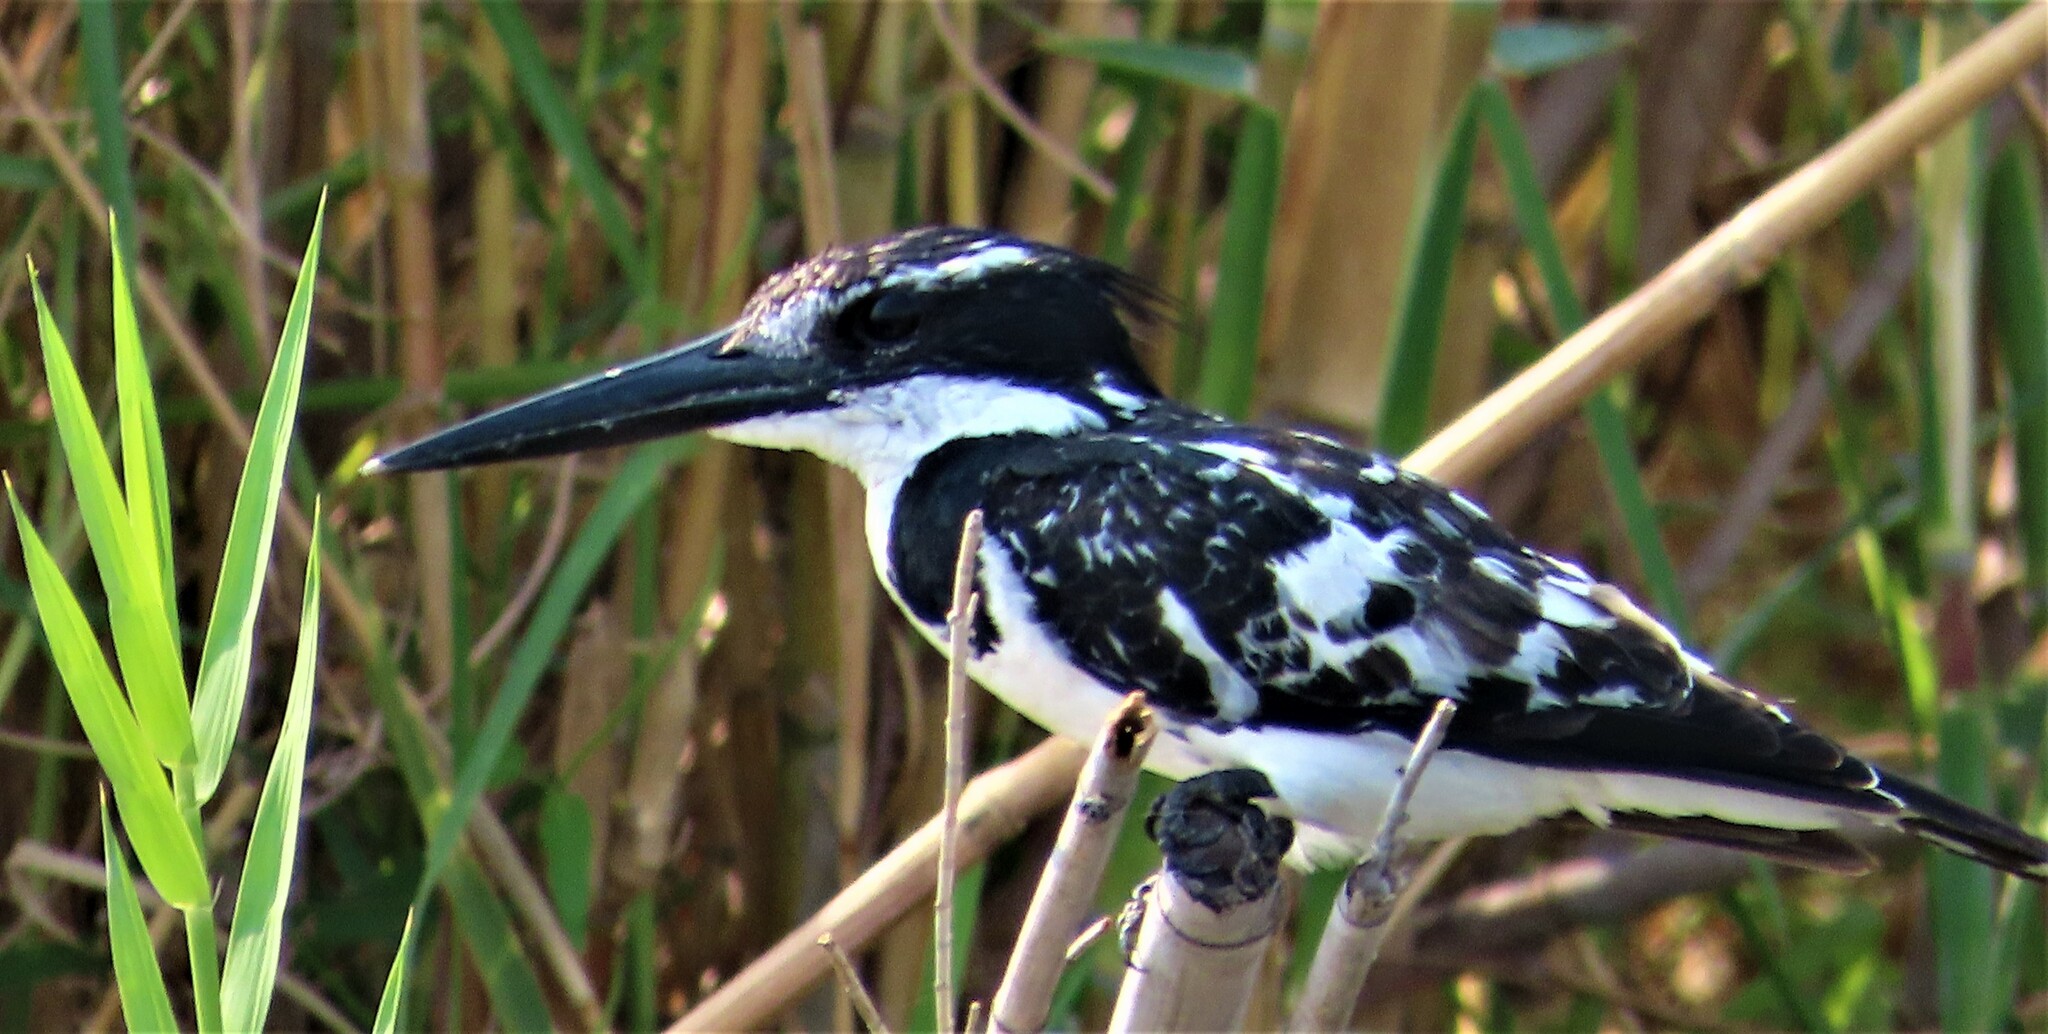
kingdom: Animalia
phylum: Chordata
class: Aves
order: Coraciiformes
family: Alcedinidae
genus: Ceryle
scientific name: Ceryle rudis
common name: Pied kingfisher
